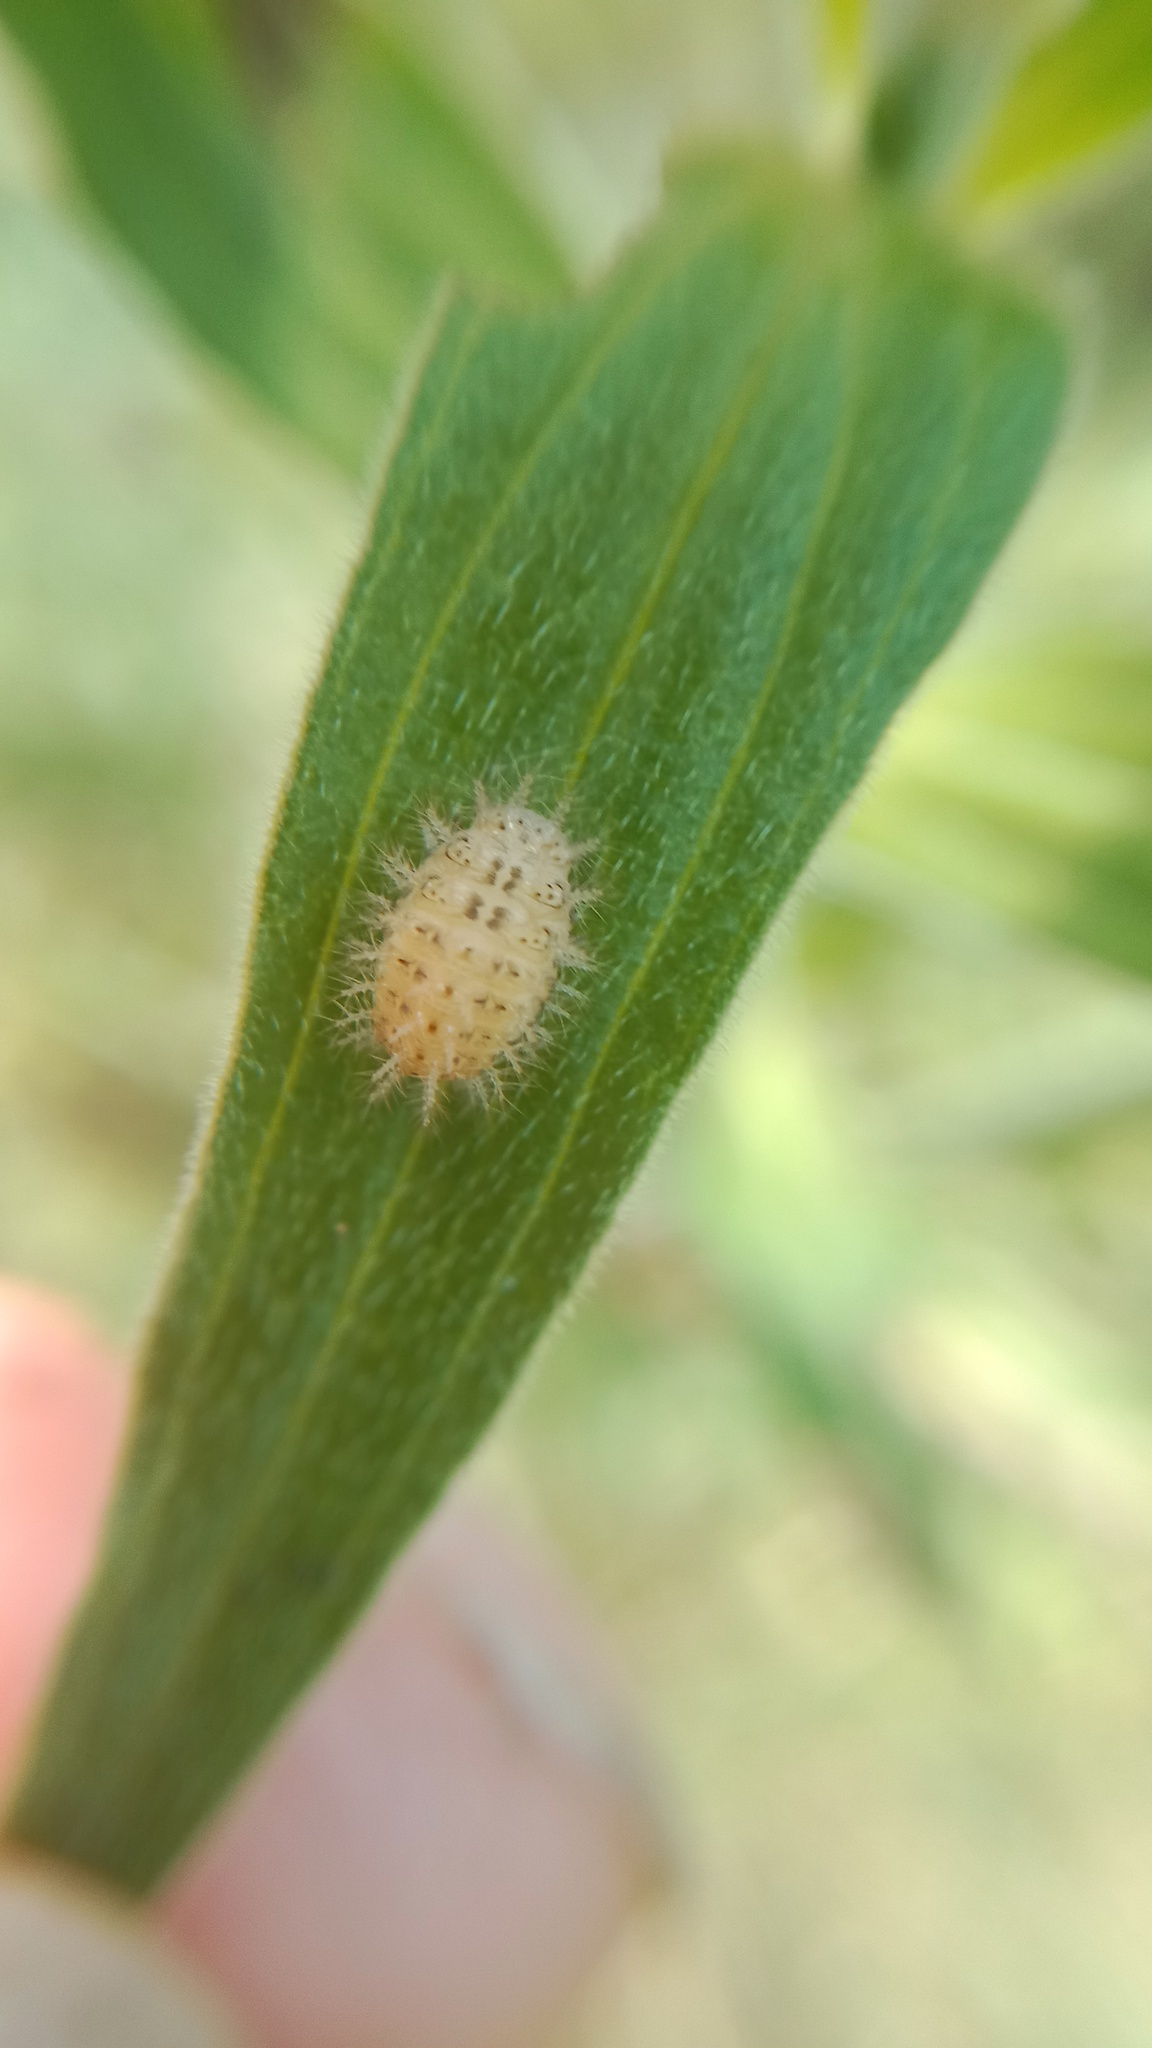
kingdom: Animalia
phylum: Arthropoda
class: Insecta
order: Coleoptera
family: Coccinellidae
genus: Subcoccinella
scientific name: Subcoccinella vigintiquatuorpunctata
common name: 24-spot ladybird
